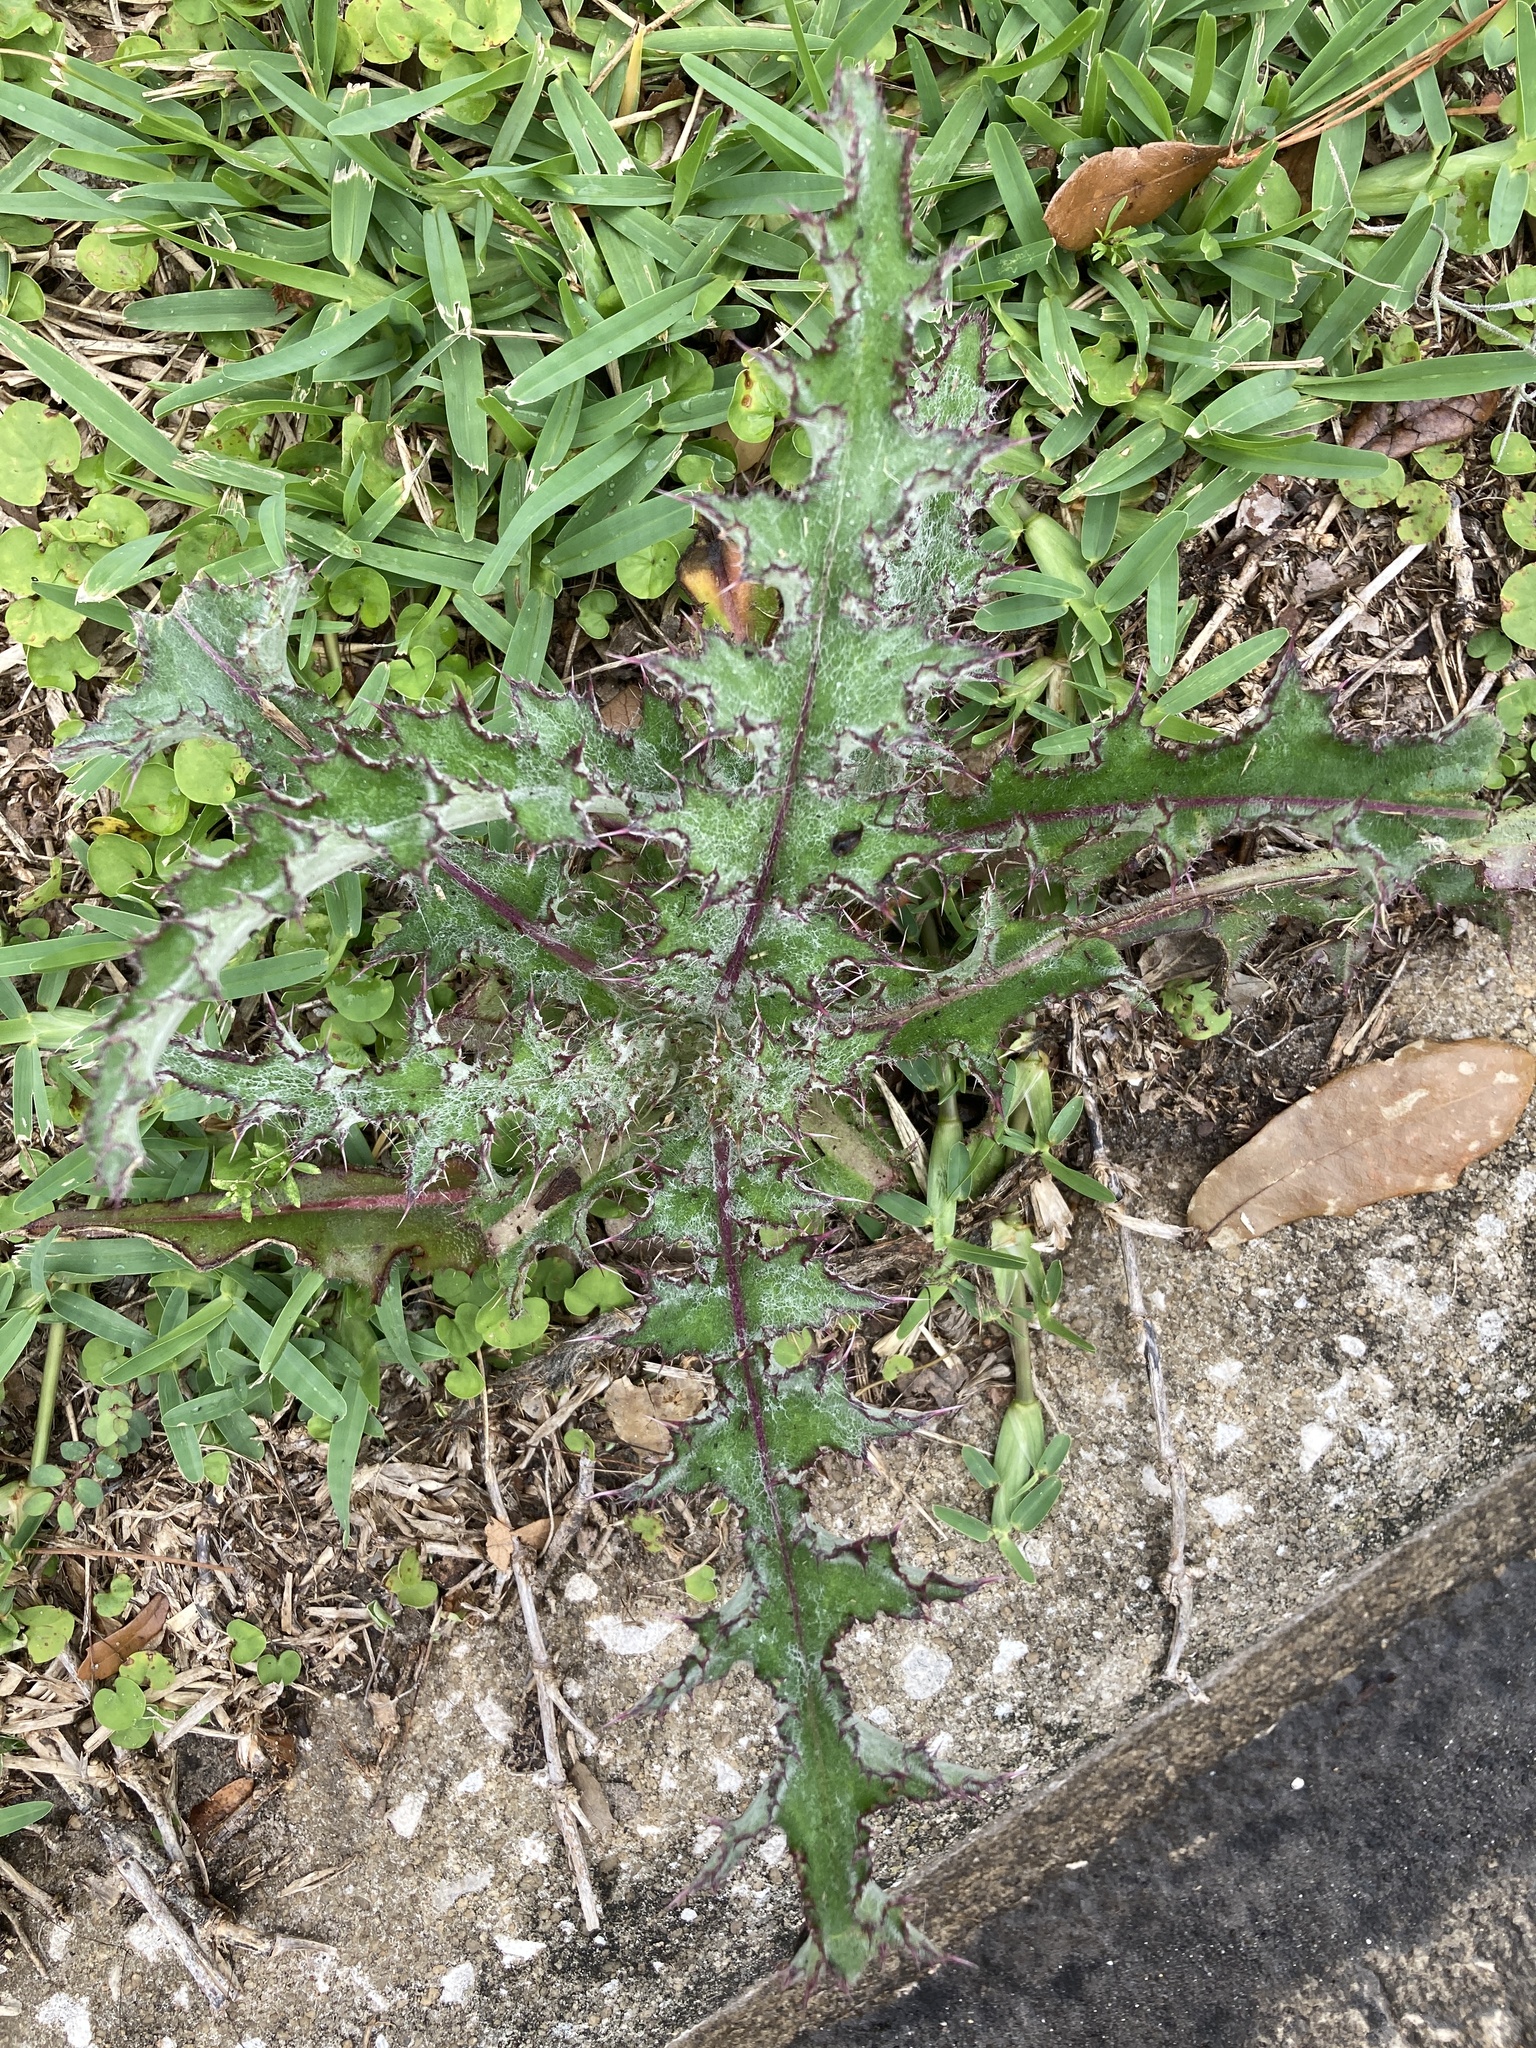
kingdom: Plantae
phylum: Tracheophyta
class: Magnoliopsida
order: Asterales
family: Asteraceae
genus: Cirsium
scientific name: Cirsium horridulum
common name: Bristly thistle
